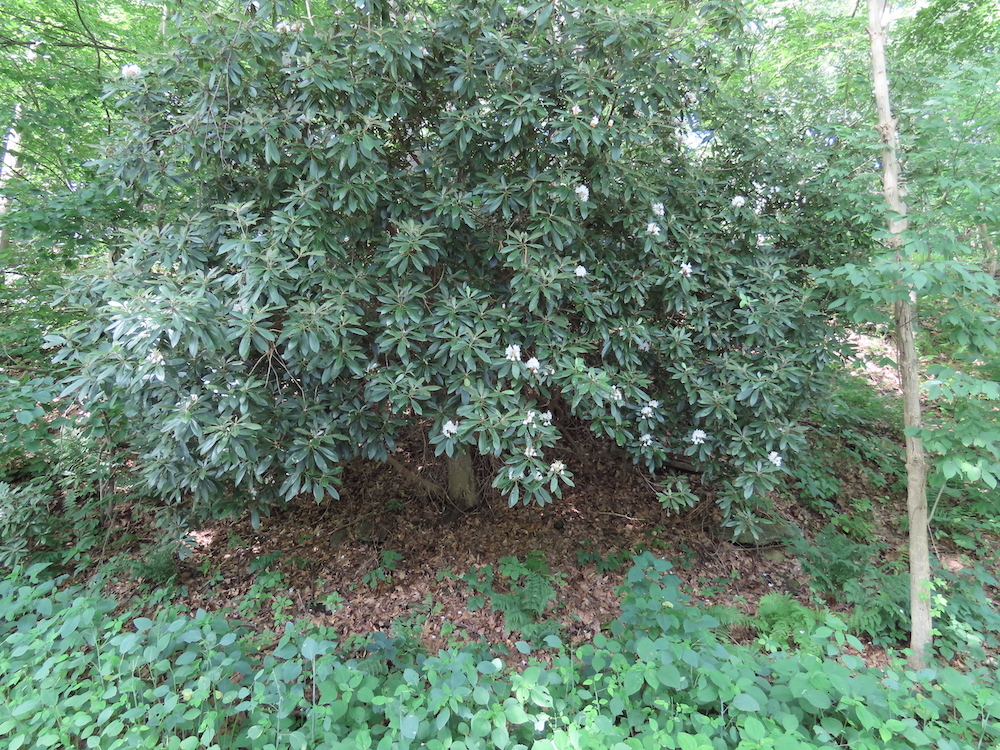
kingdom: Plantae
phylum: Tracheophyta
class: Magnoliopsida
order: Ericales
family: Ericaceae
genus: Rhododendron
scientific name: Rhododendron maximum
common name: Great rhododendron
